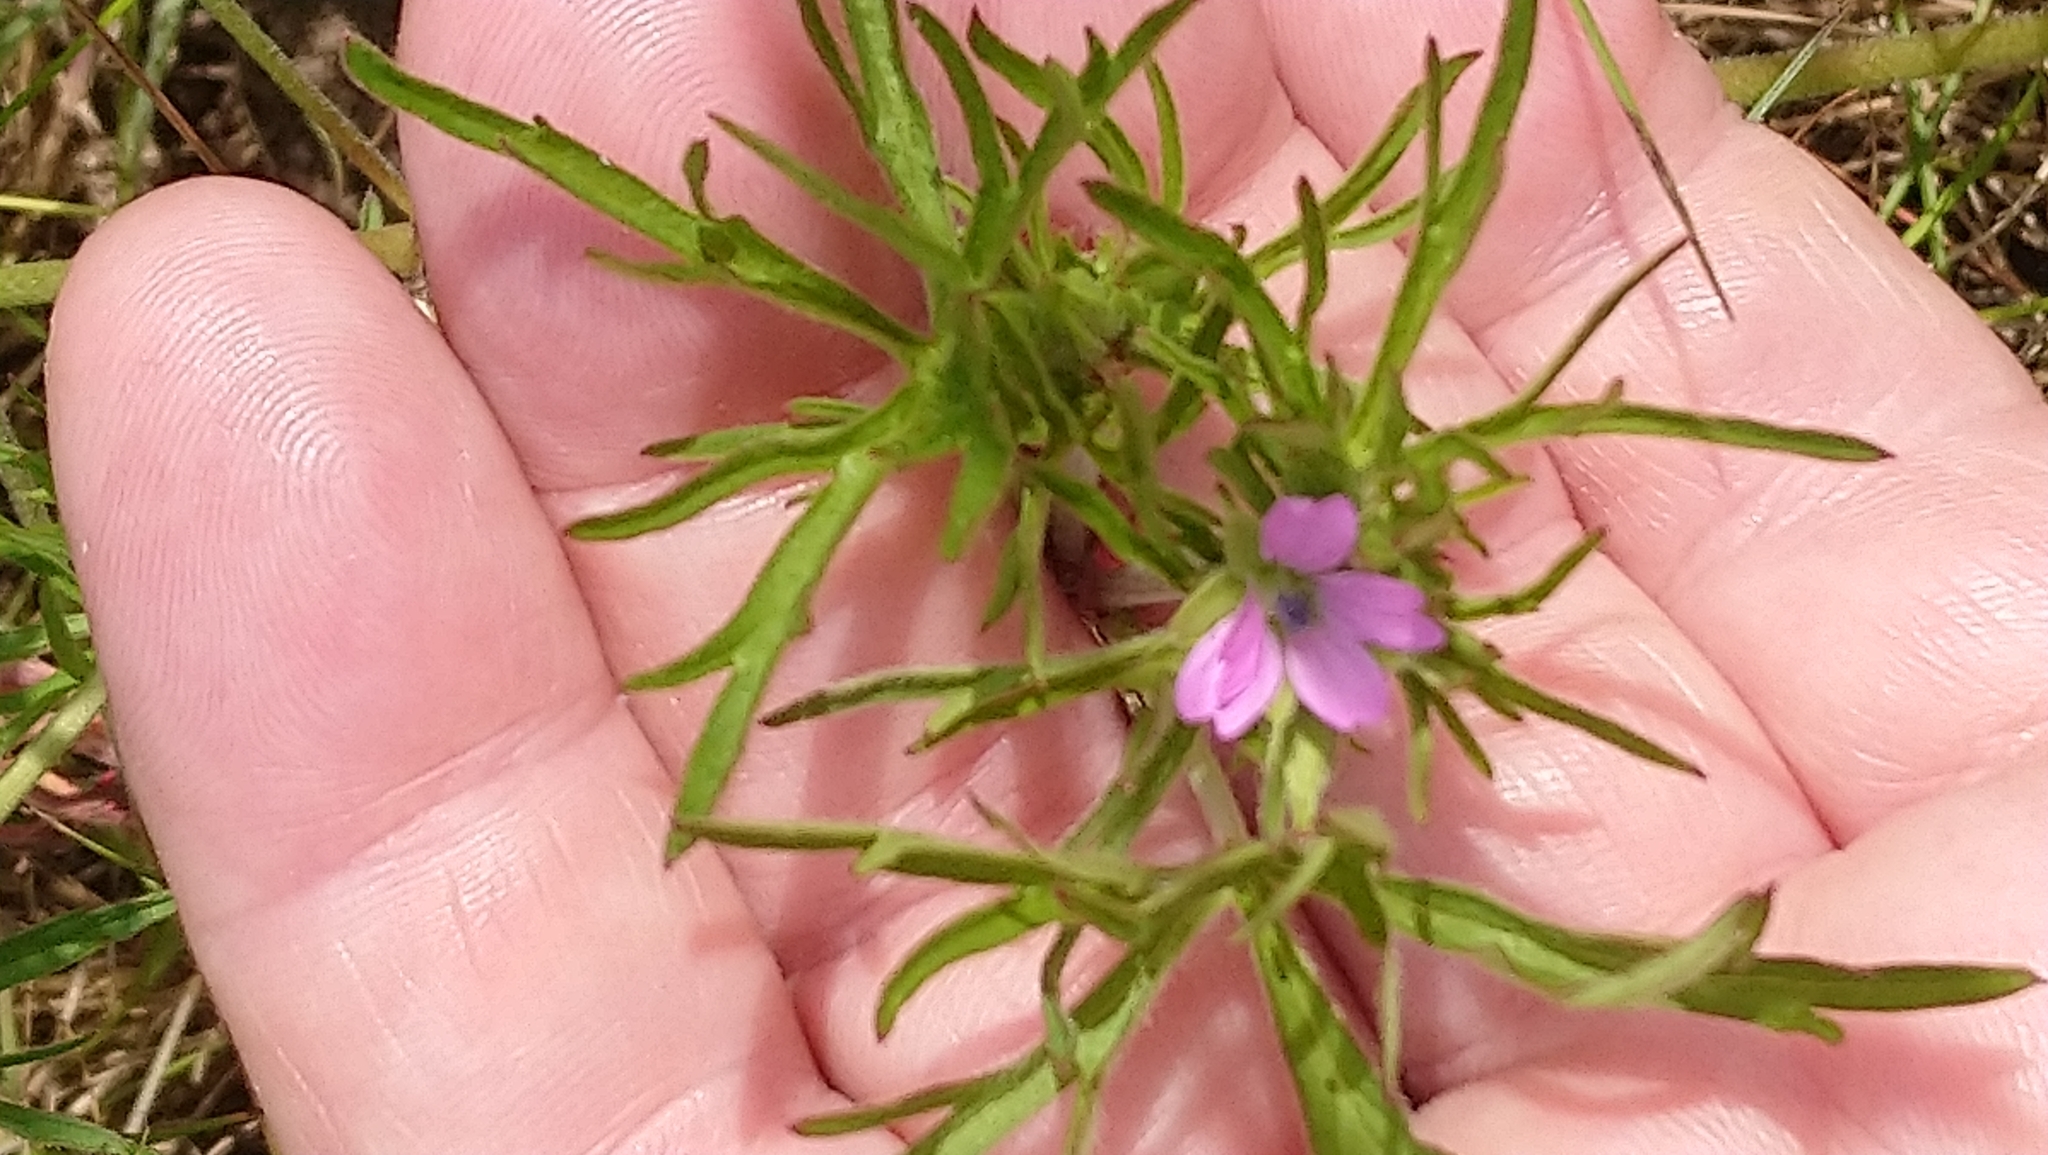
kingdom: Plantae
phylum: Tracheophyta
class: Magnoliopsida
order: Geraniales
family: Geraniaceae
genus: Geranium
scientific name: Geranium dissectum
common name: Cut-leaved crane's-bill
